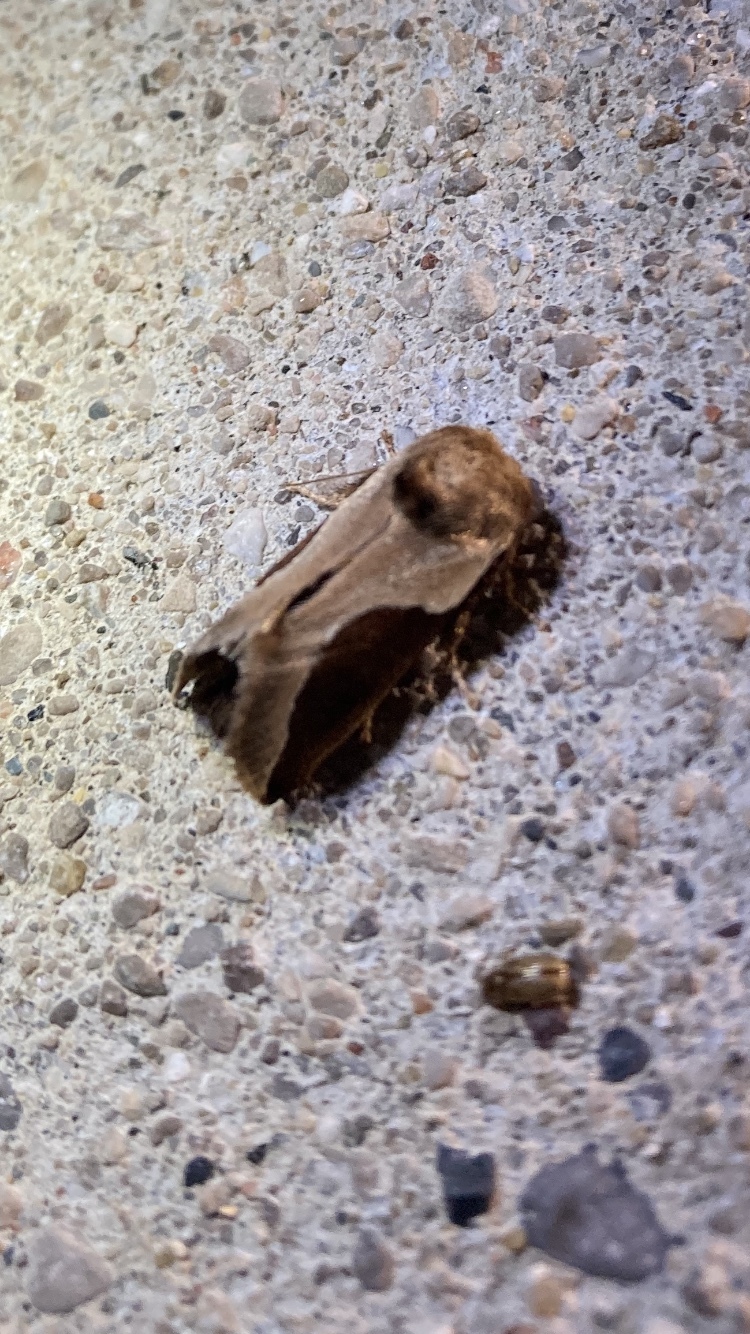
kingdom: Animalia
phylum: Arthropoda
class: Insecta
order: Lepidoptera
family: Limacodidae
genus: Prolimacodes
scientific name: Prolimacodes badia
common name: Skiff moth
